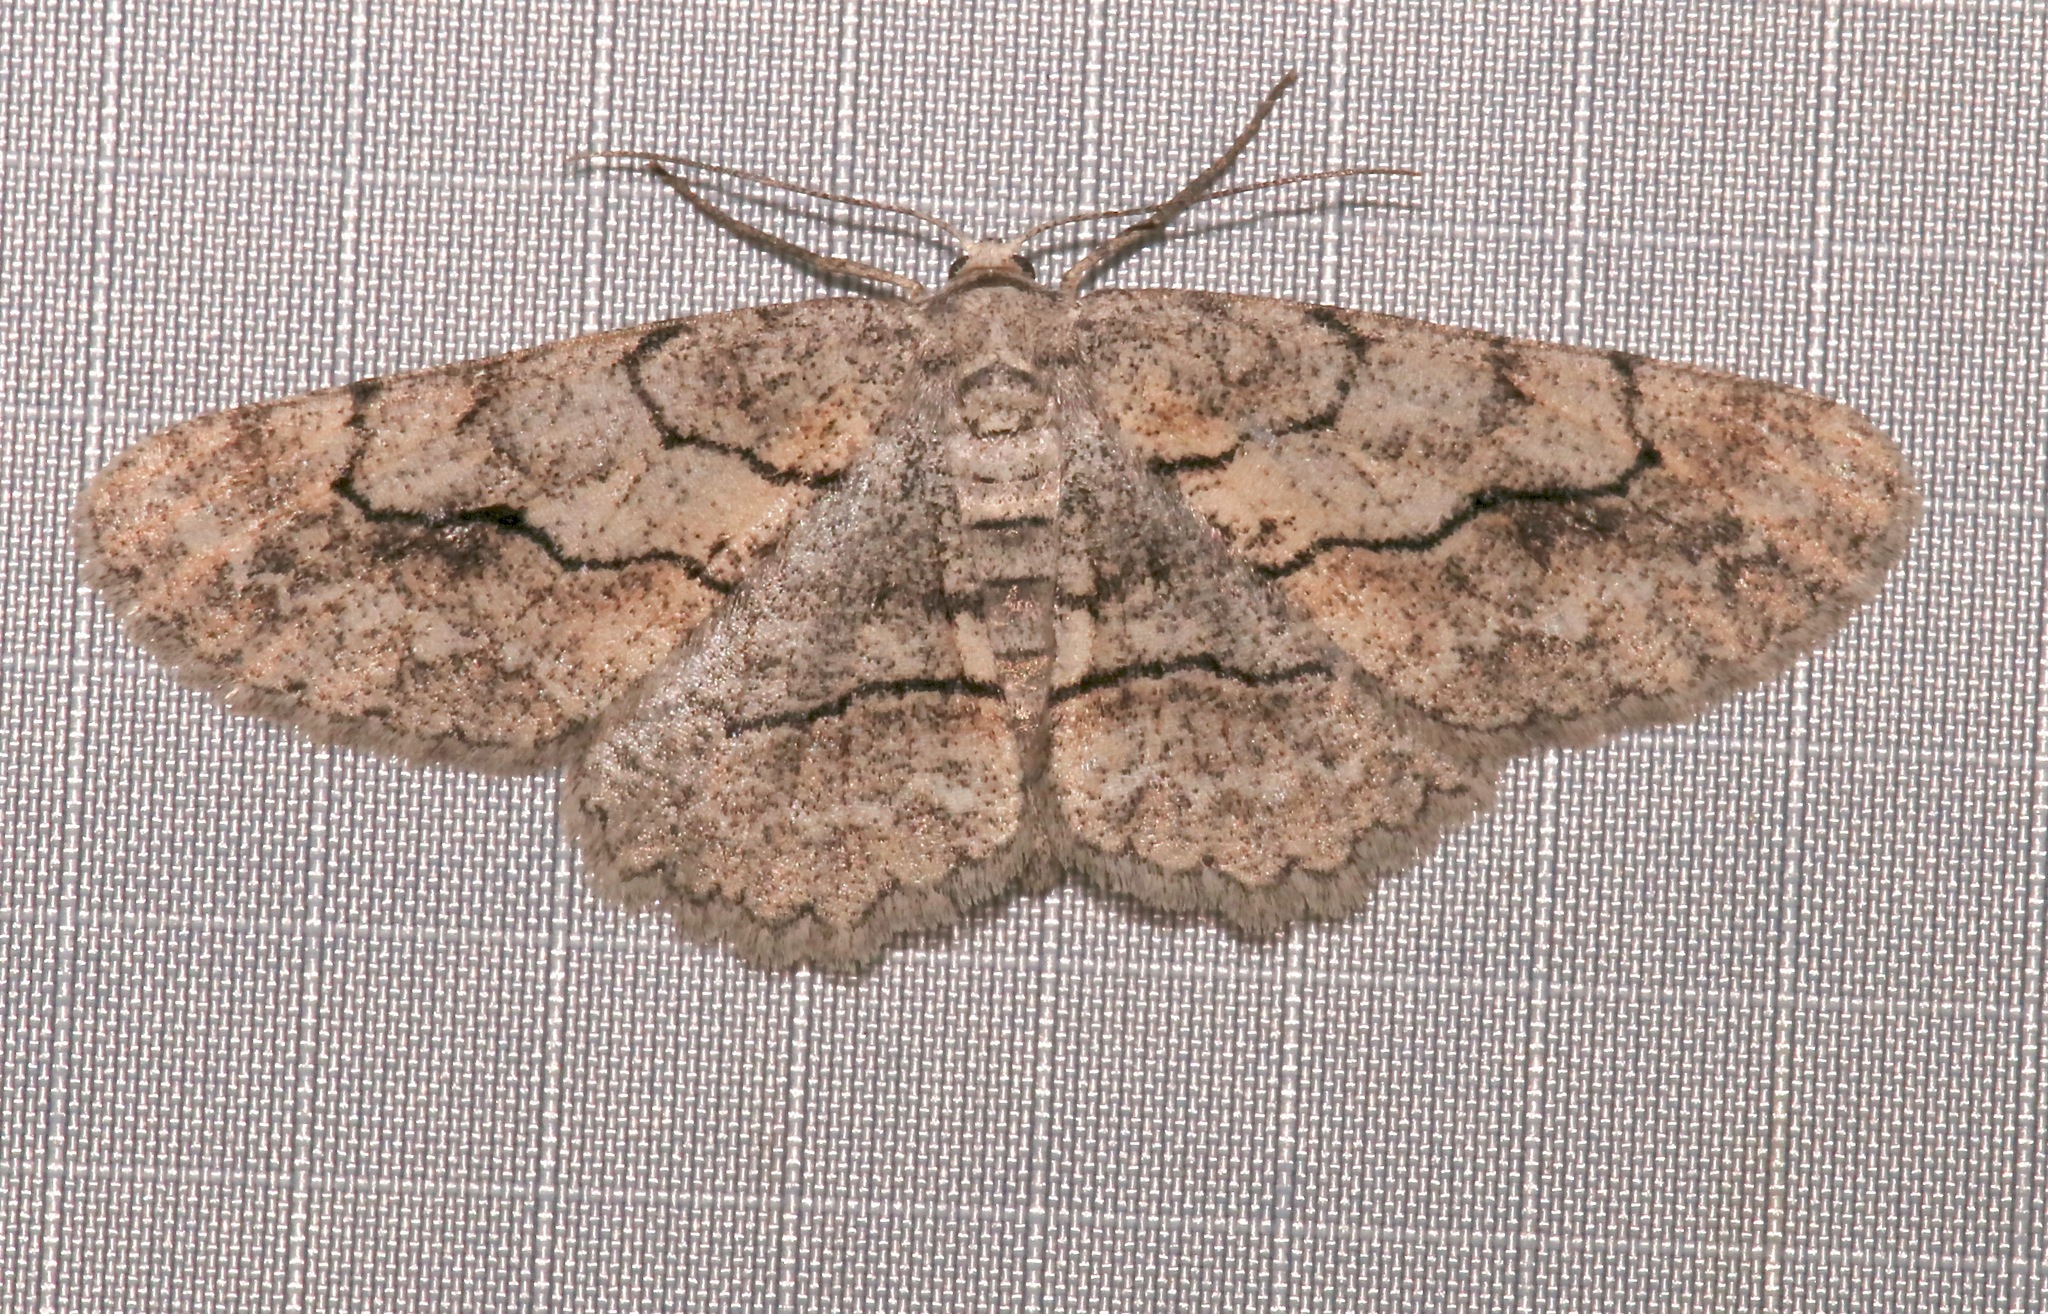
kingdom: Animalia
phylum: Arthropoda
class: Insecta
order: Lepidoptera
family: Geometridae
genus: Stenoporpia
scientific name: Stenoporpia pulmonaria
